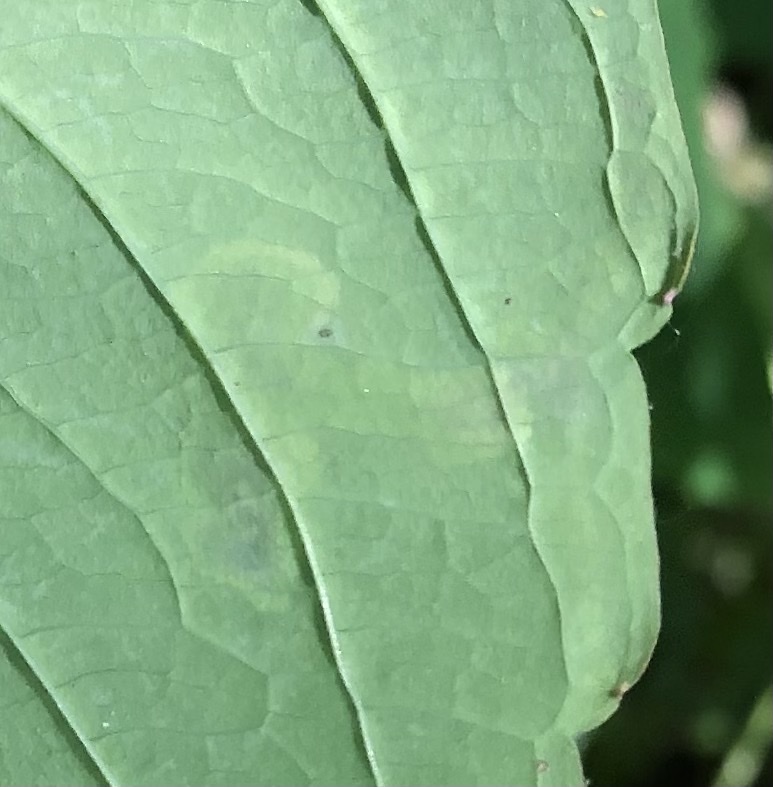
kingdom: Animalia
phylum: Arthropoda
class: Insecta
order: Diptera
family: Agromyzidae
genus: Phytoliriomyza
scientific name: Phytoliriomyza melampyga
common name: Jewelweed leaf-miner fly
